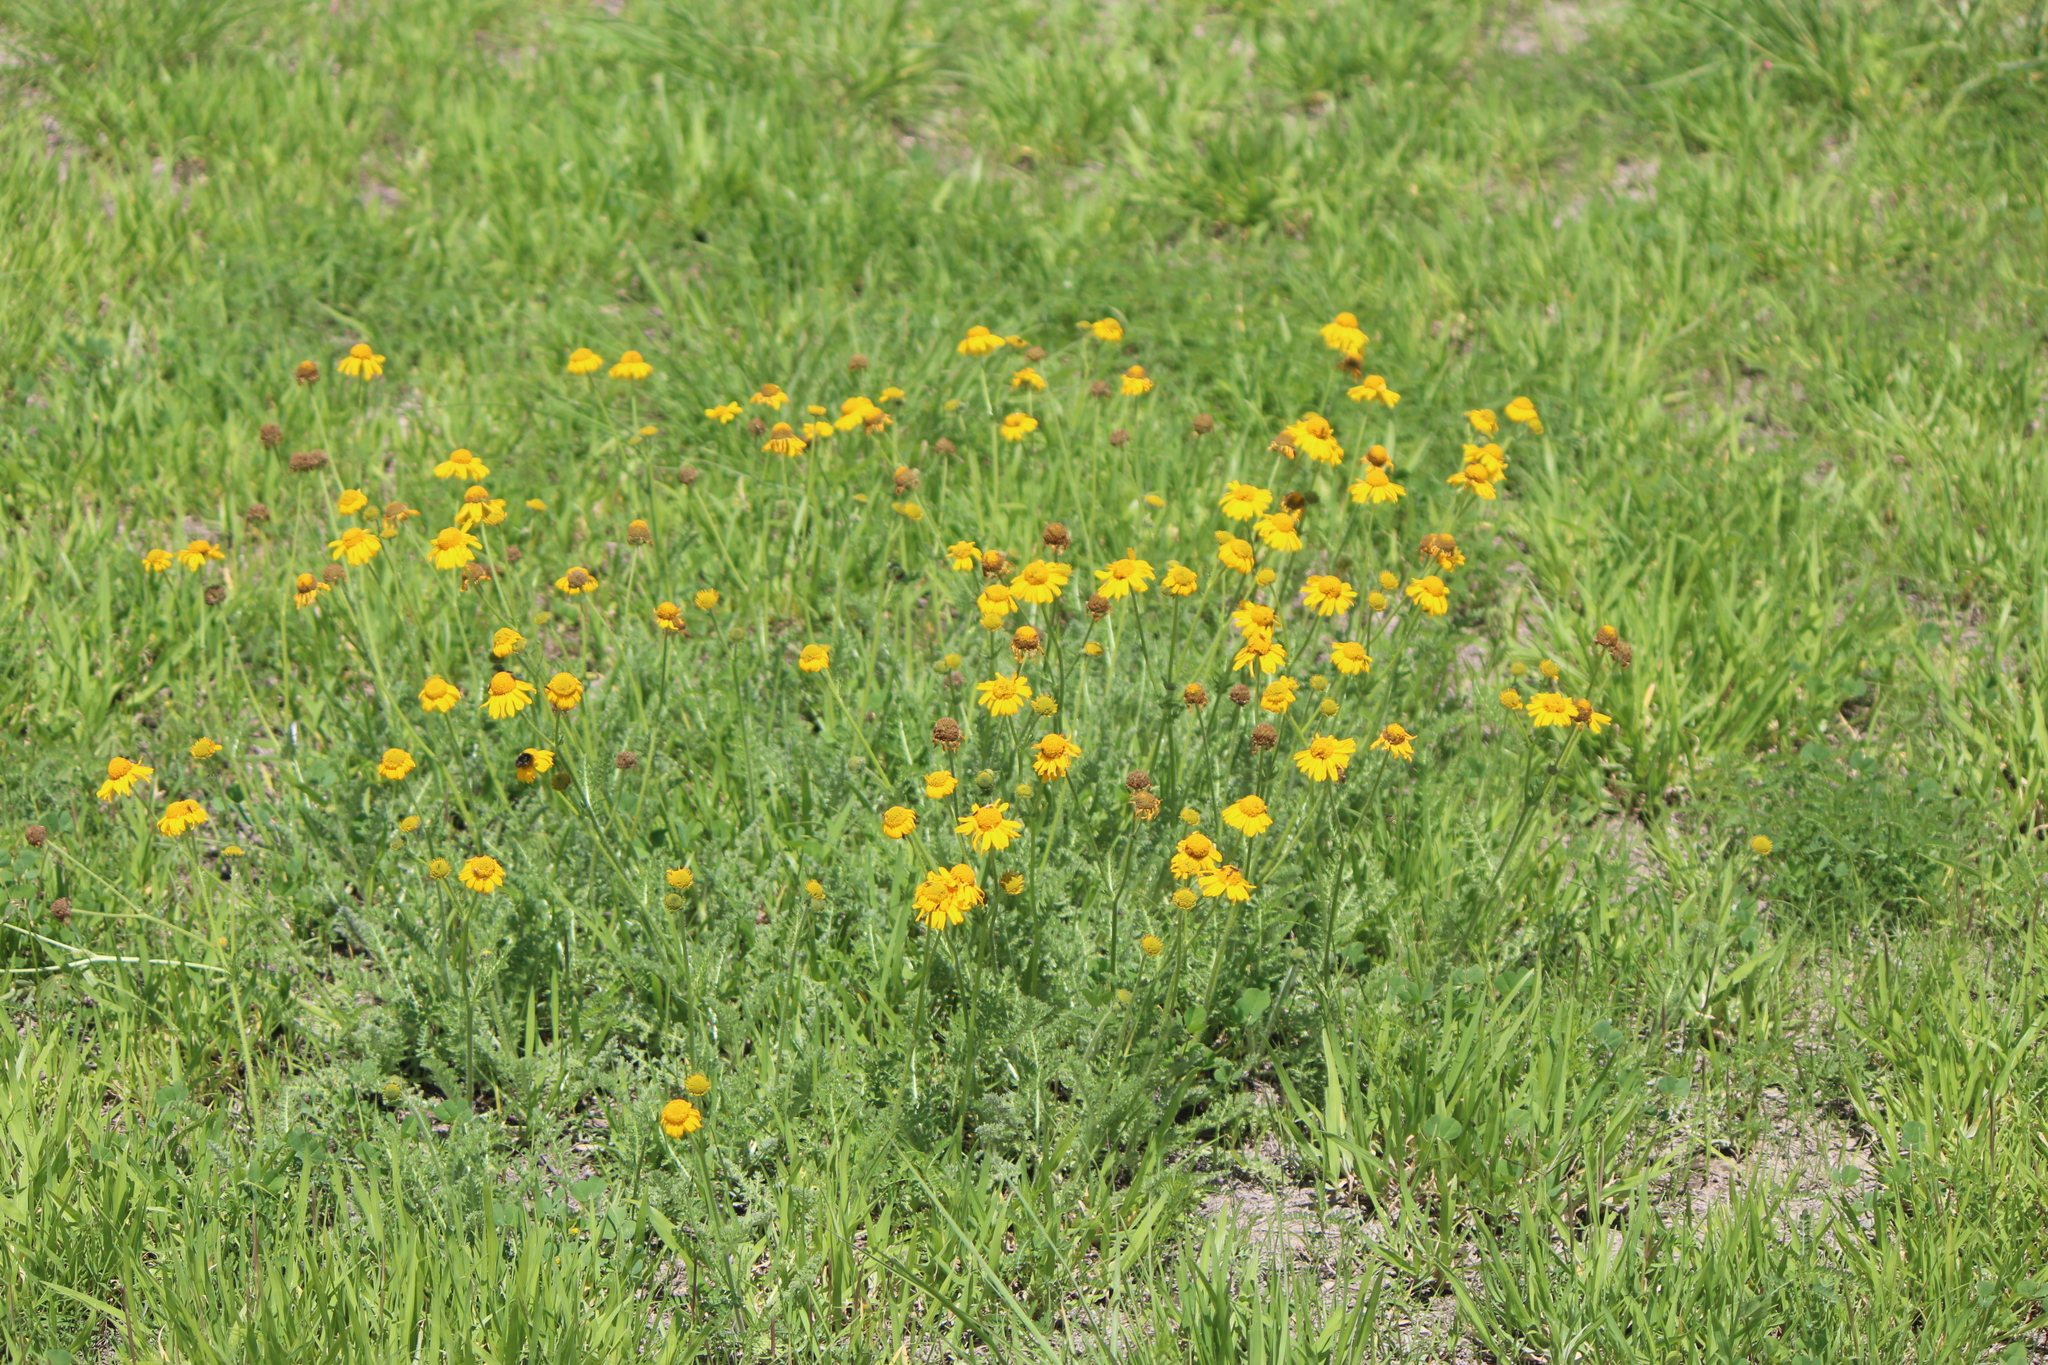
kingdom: Plantae
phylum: Tracheophyta
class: Magnoliopsida
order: Asterales
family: Asteraceae
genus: Hybridella
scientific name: Hybridella globosa
